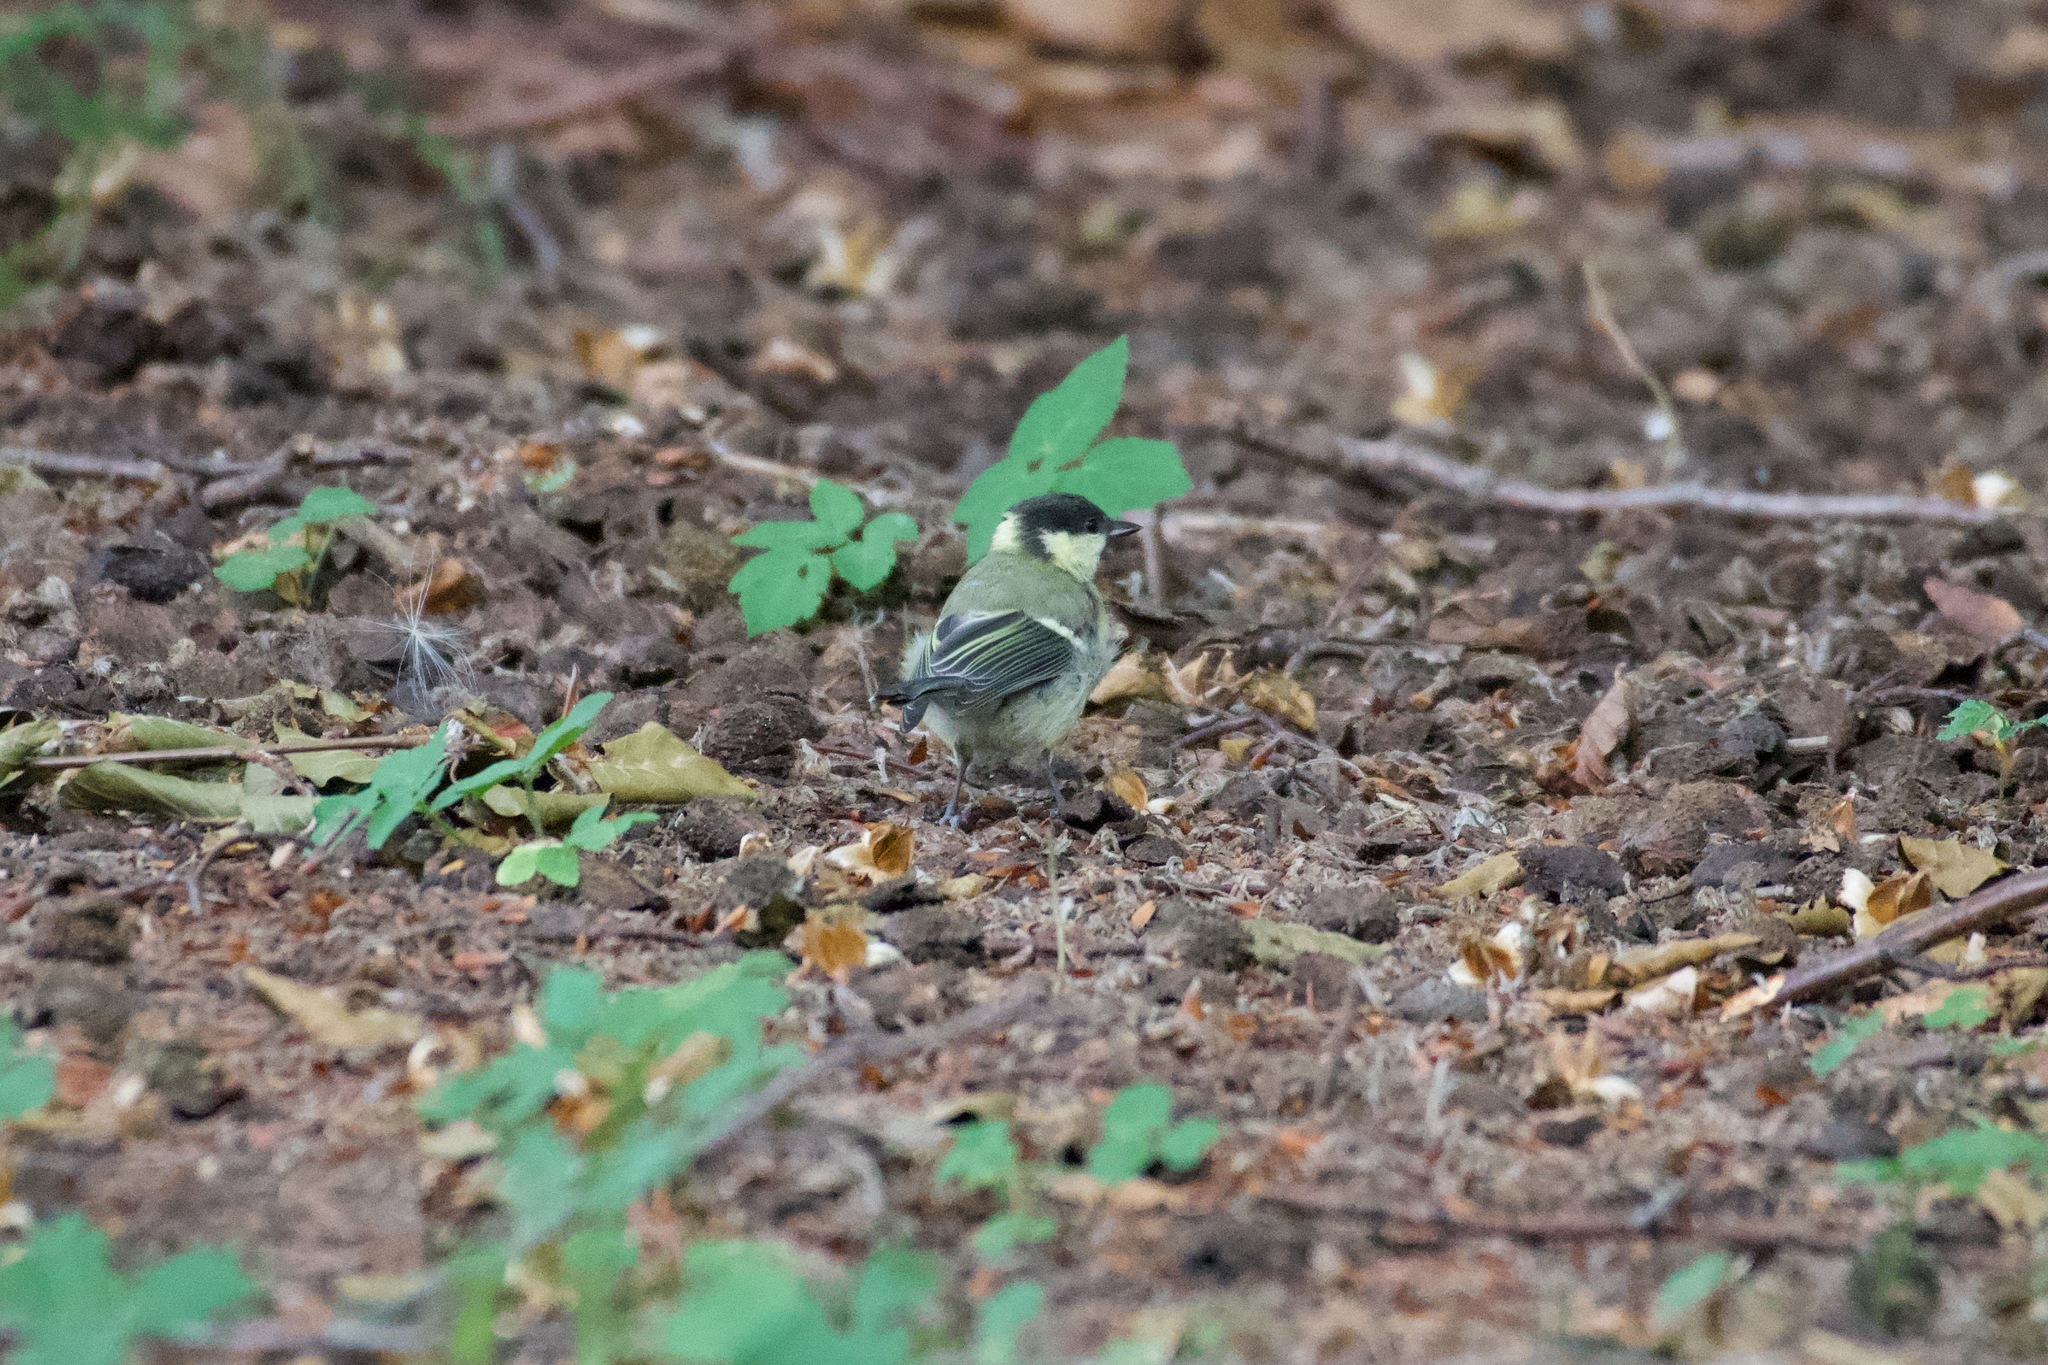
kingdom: Animalia
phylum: Chordata
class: Aves
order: Passeriformes
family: Paridae
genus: Parus
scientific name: Parus major
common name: Great tit
